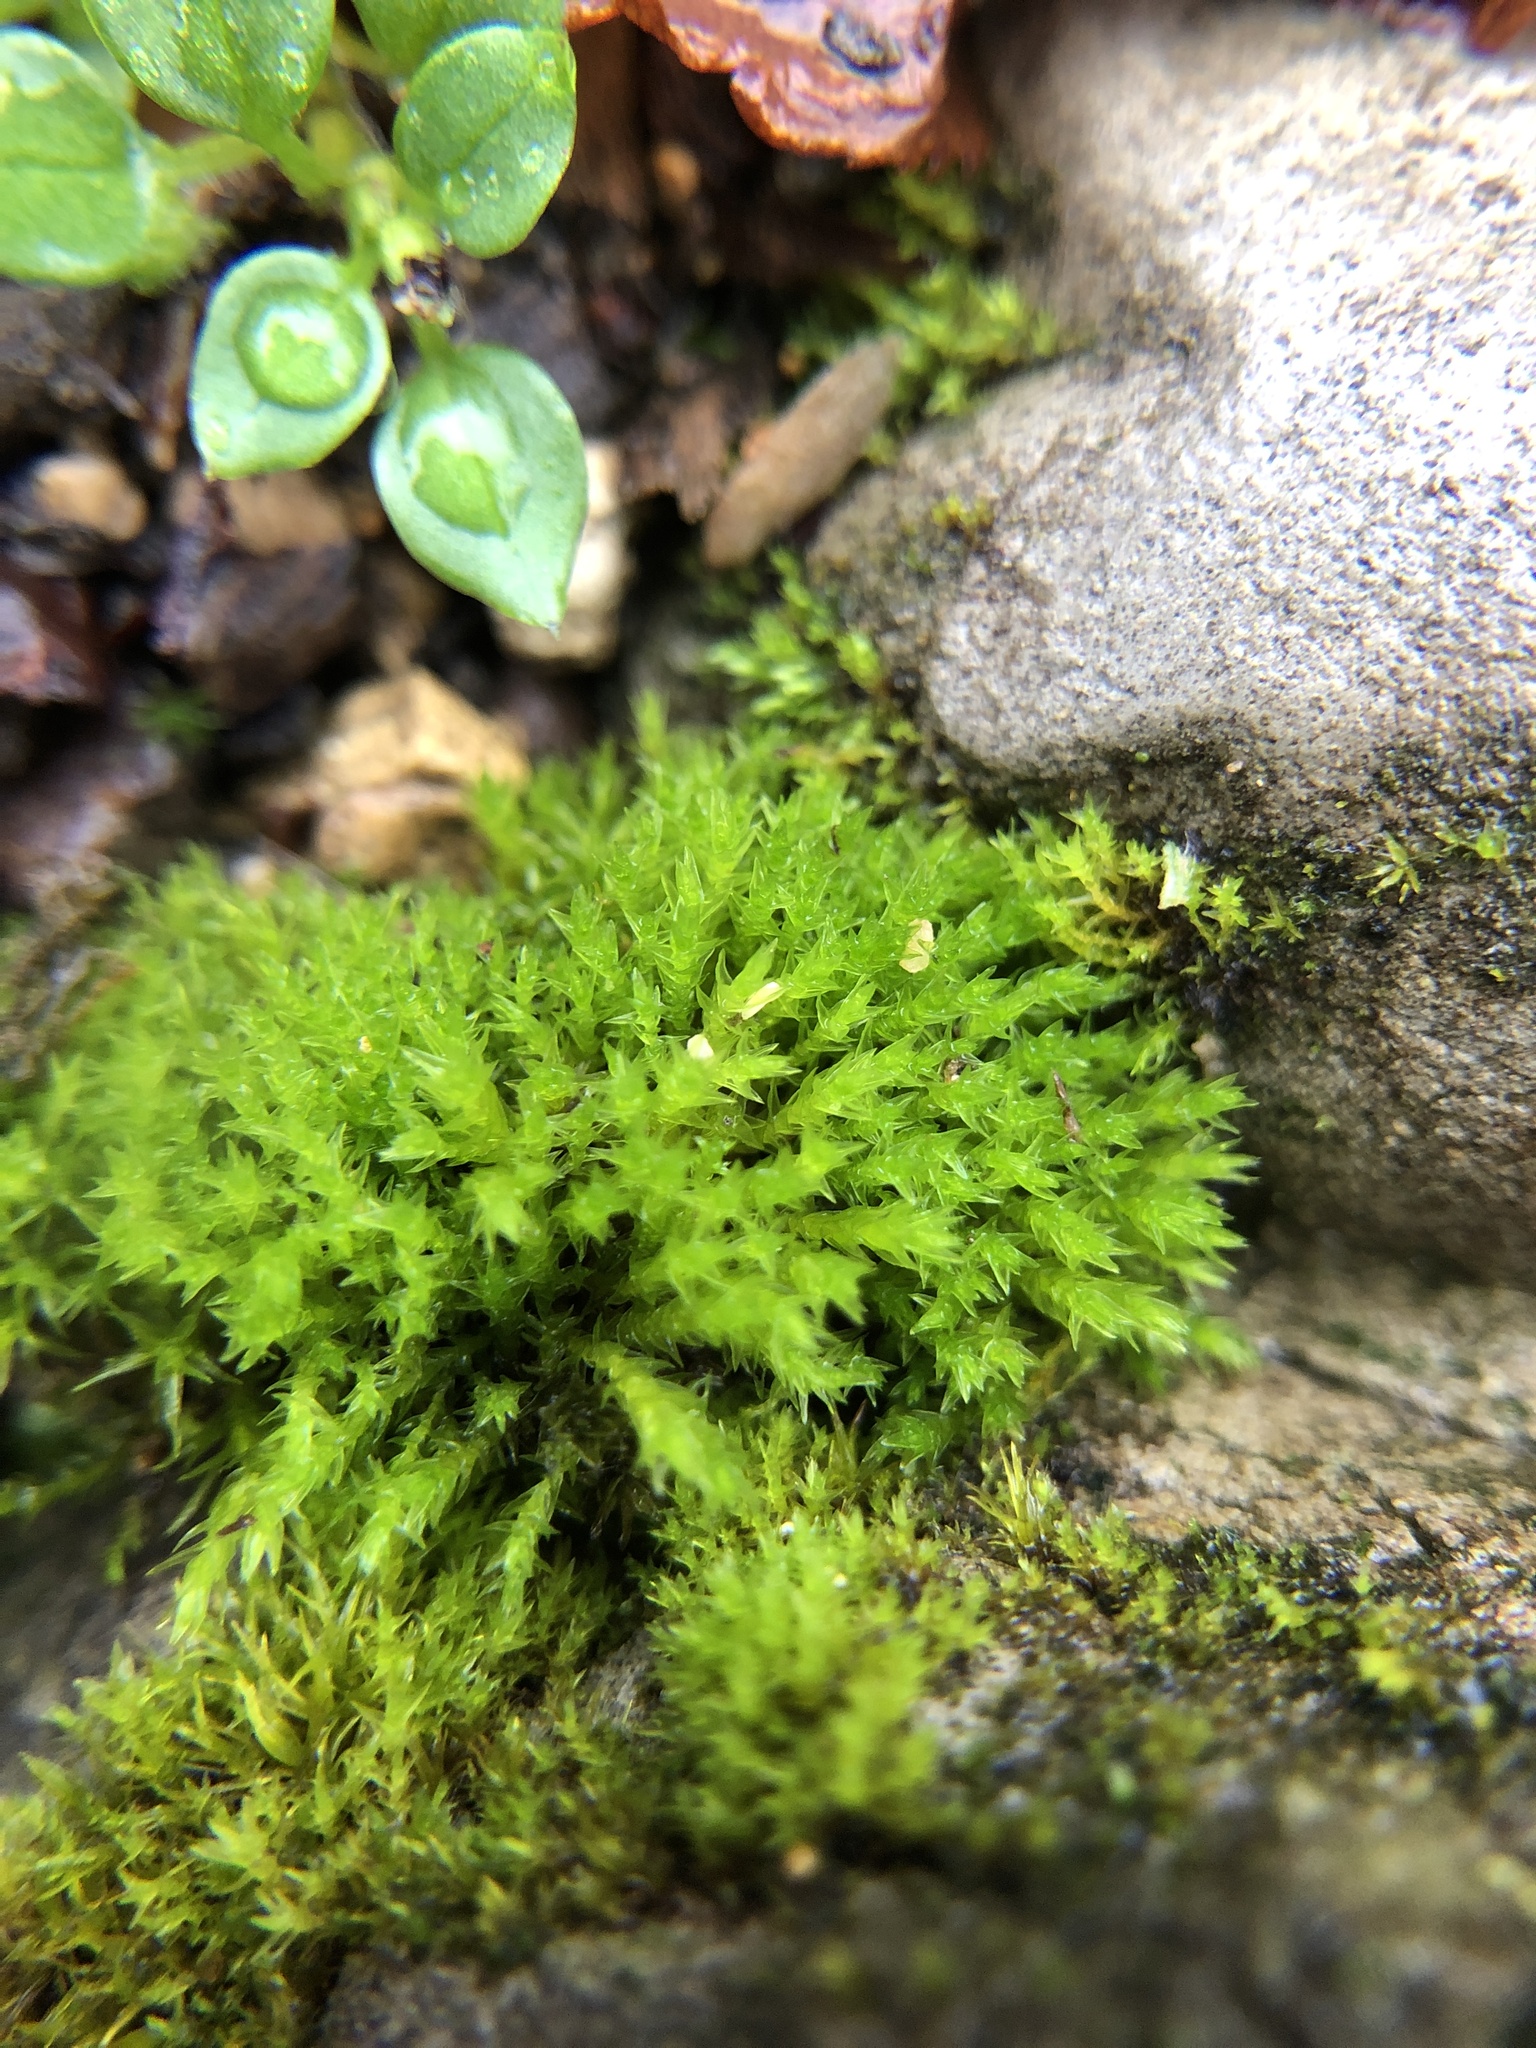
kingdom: Plantae
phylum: Bryophyta
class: Bryopsida
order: Pottiales
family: Pottiaceae
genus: Geheebia
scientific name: Geheebia lurida
